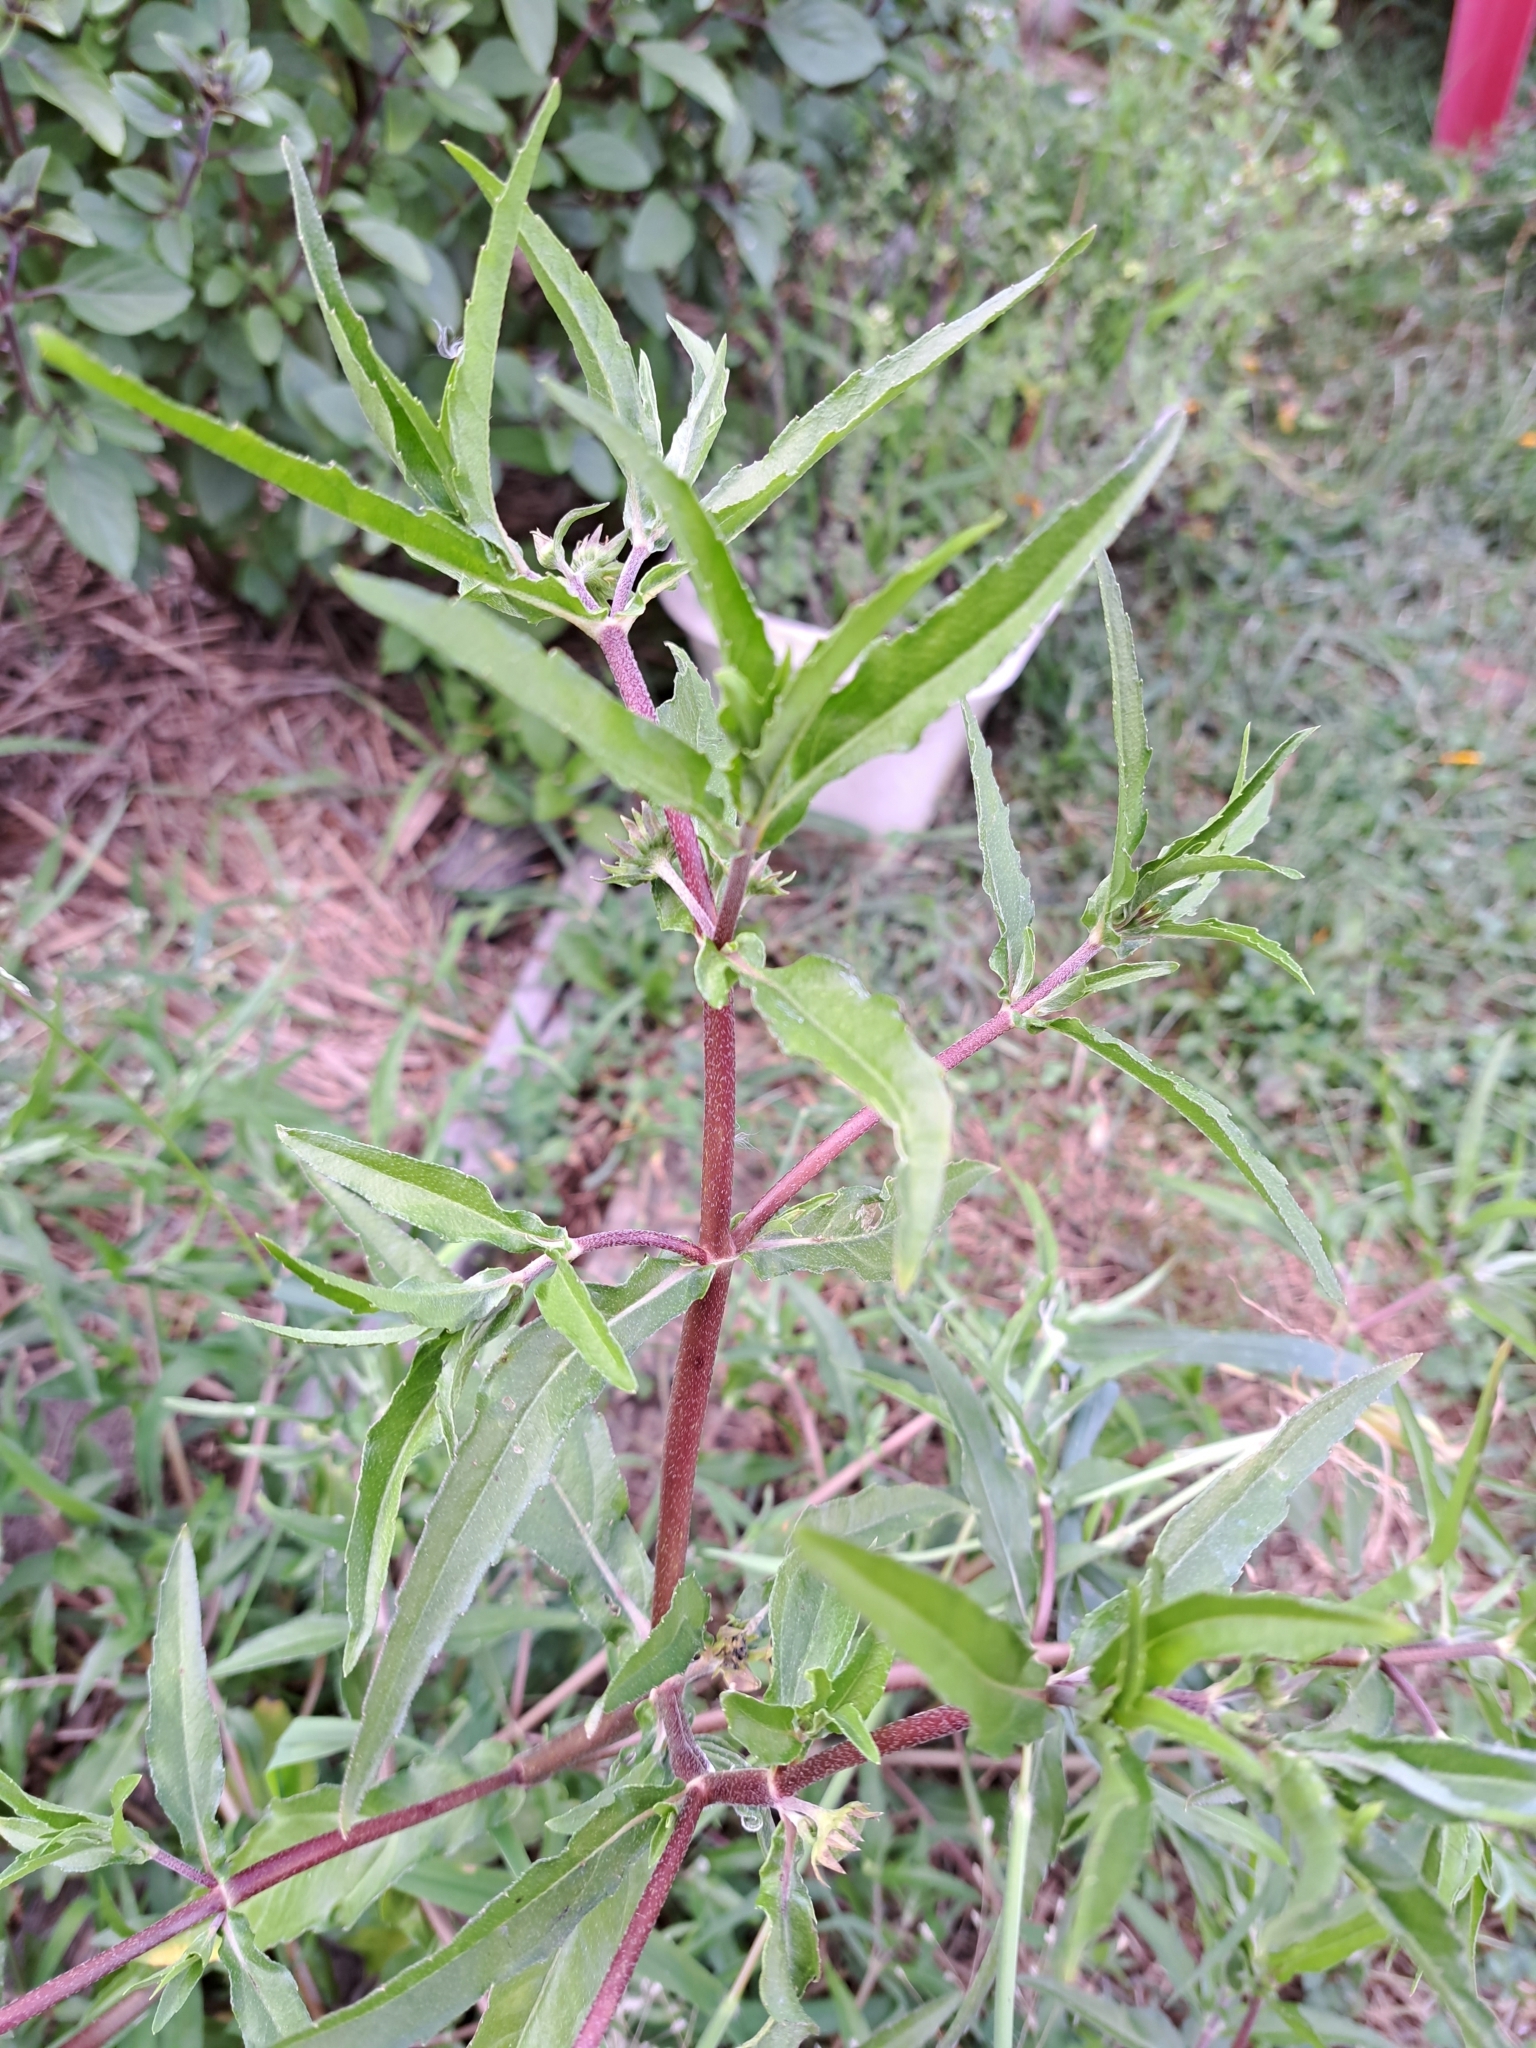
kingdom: Plantae
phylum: Tracheophyta
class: Magnoliopsida
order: Asterales
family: Asteraceae
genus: Eclipta
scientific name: Eclipta prostrata
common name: False daisy
